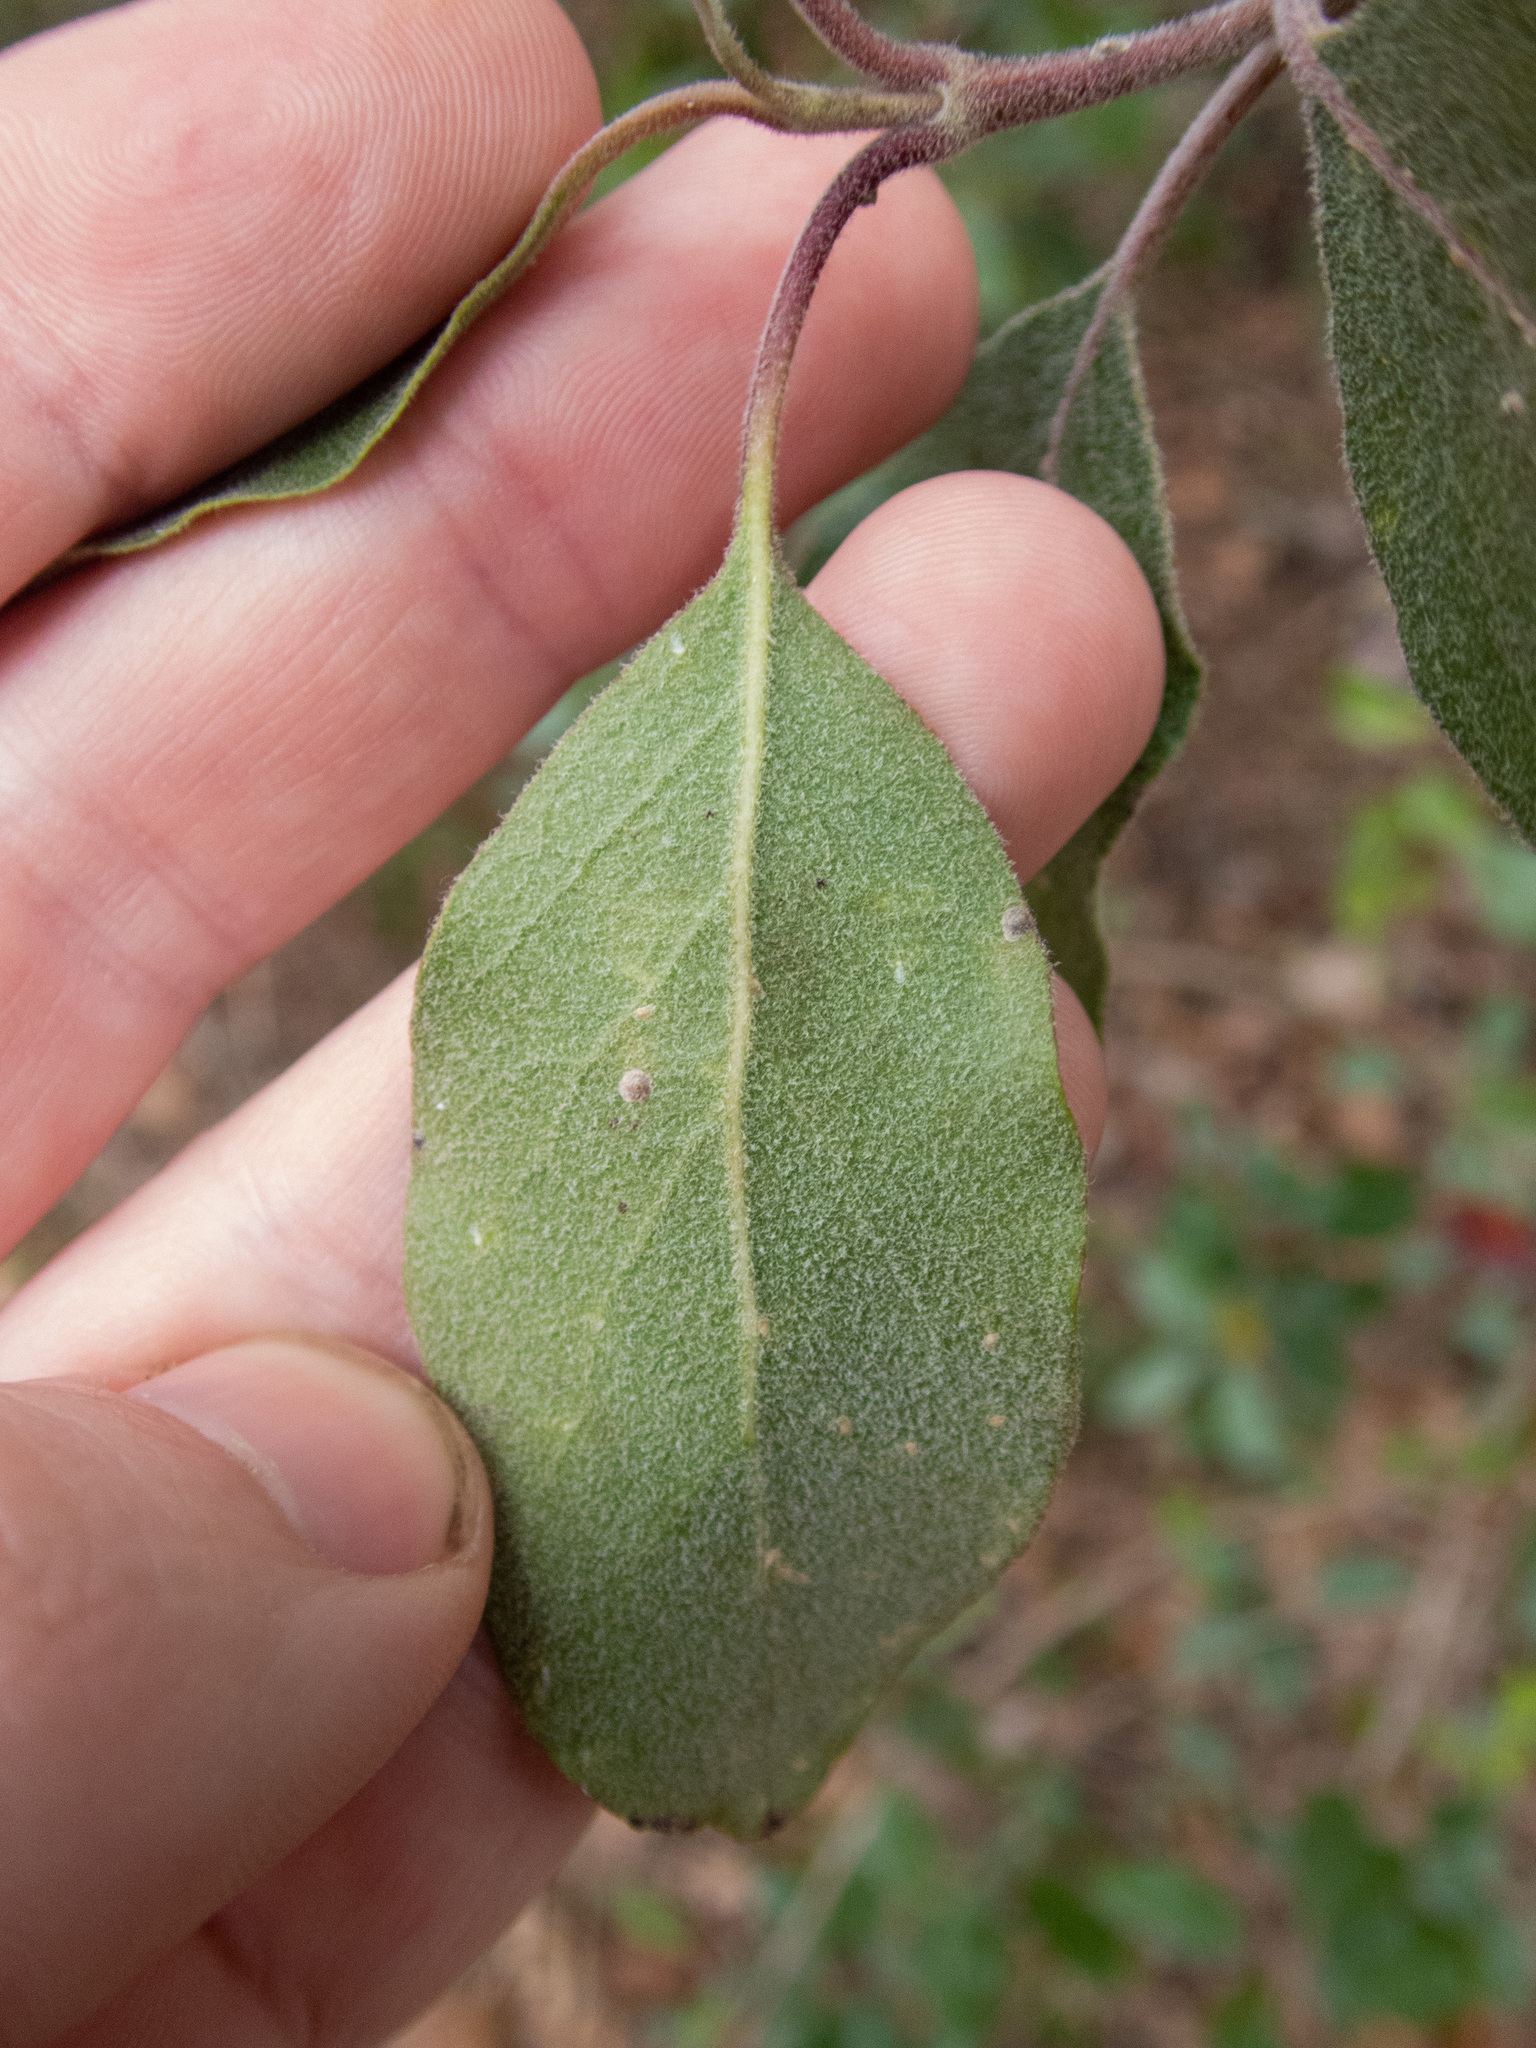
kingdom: Plantae
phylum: Tracheophyta
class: Magnoliopsida
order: Garryales
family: Garryaceae
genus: Garrya
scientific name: Garrya lindheimeri
